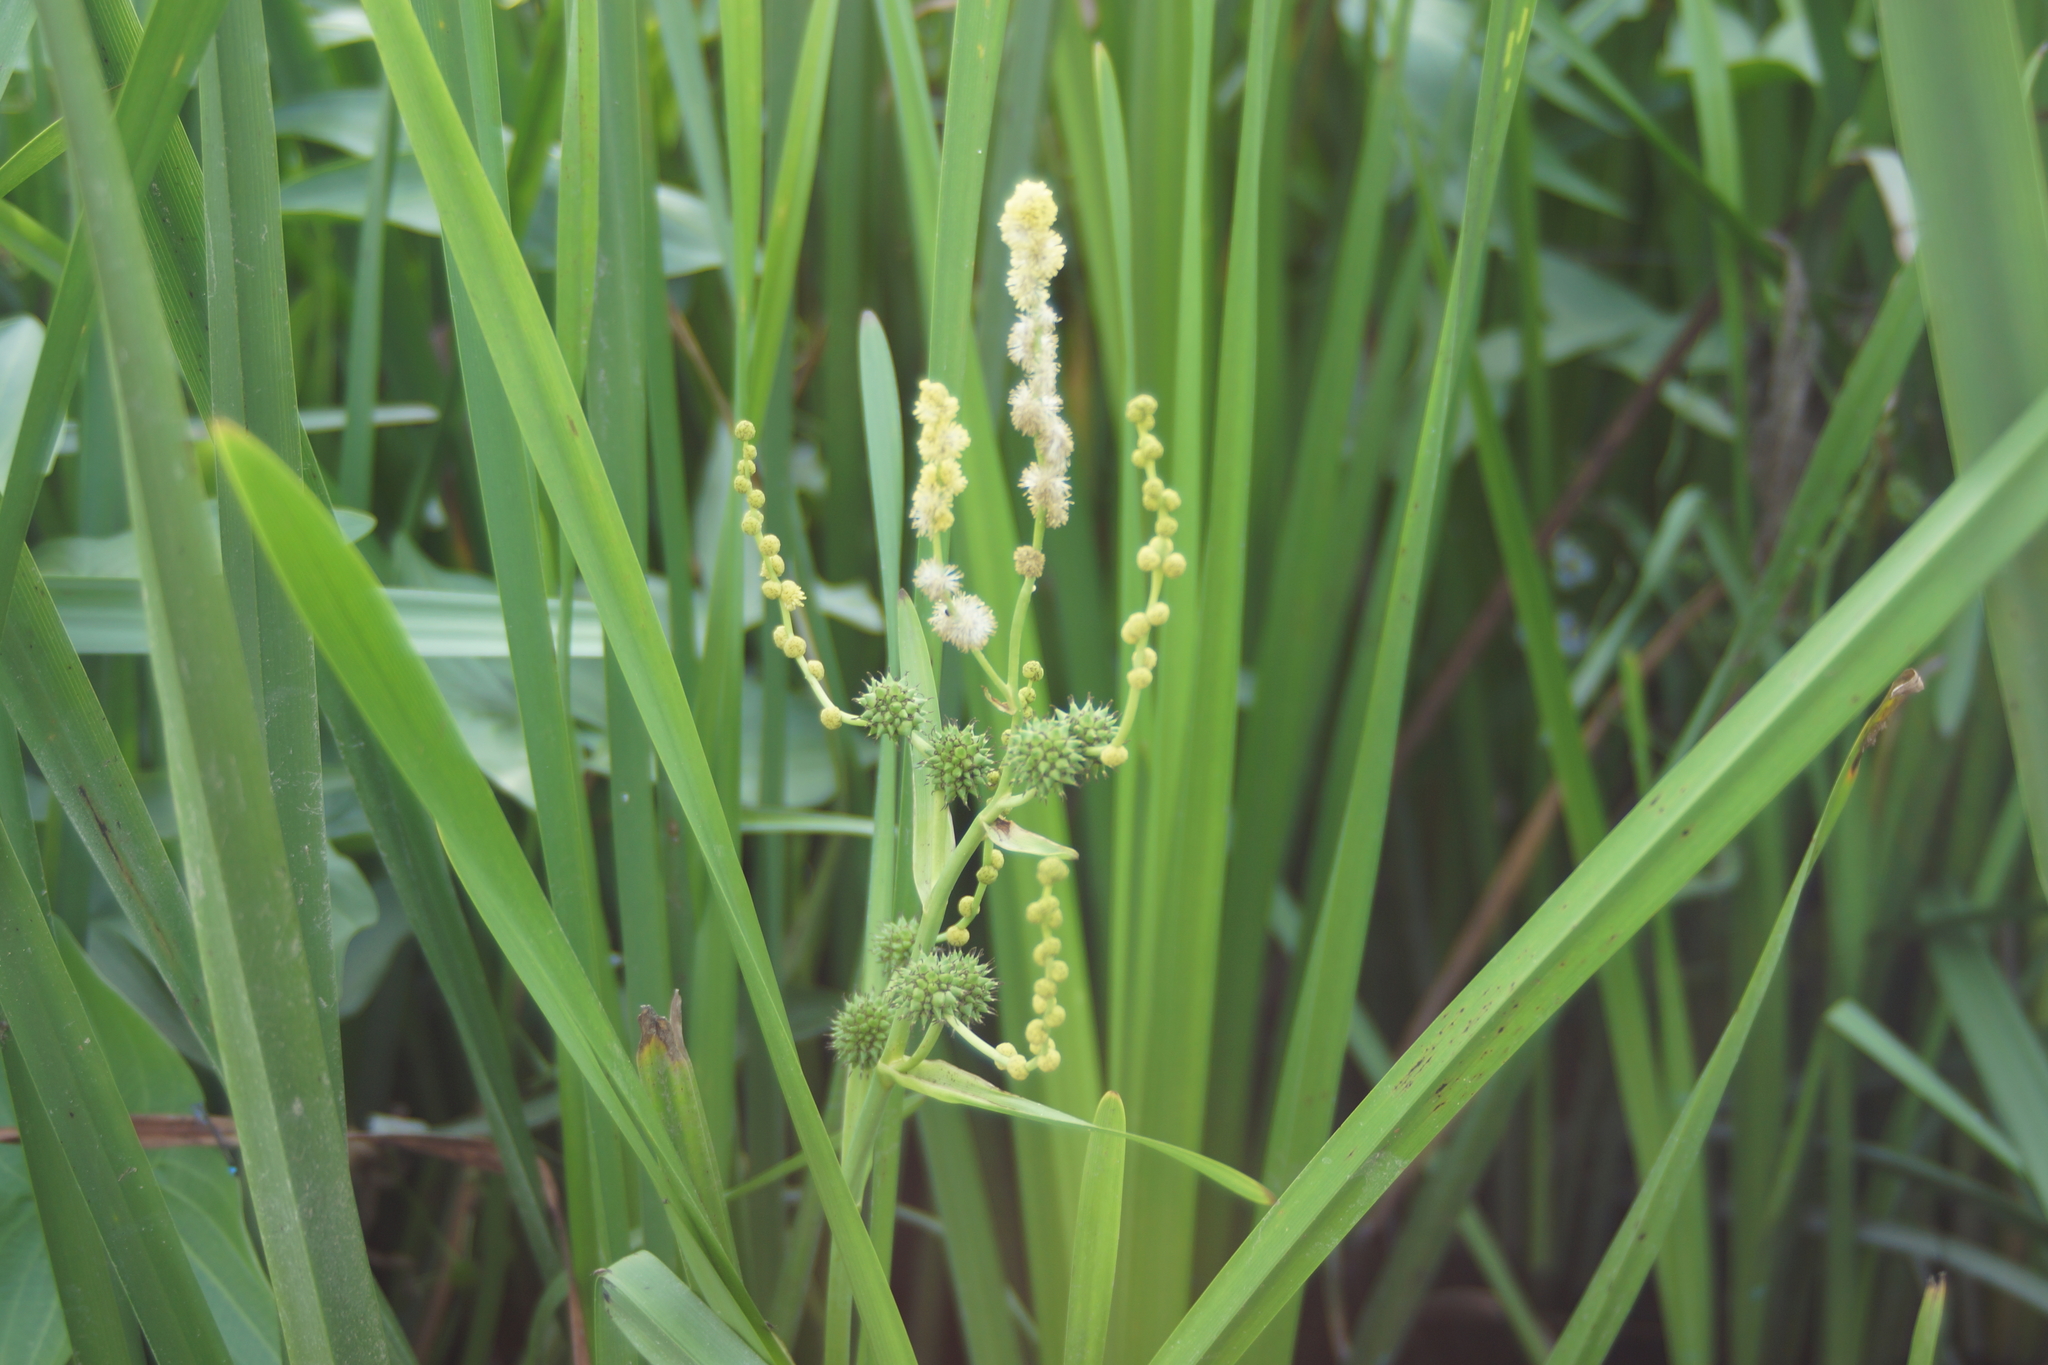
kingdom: Plantae
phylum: Tracheophyta
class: Liliopsida
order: Poales
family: Typhaceae
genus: Sparganium
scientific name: Sparganium erectum
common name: Branched bur-reed
